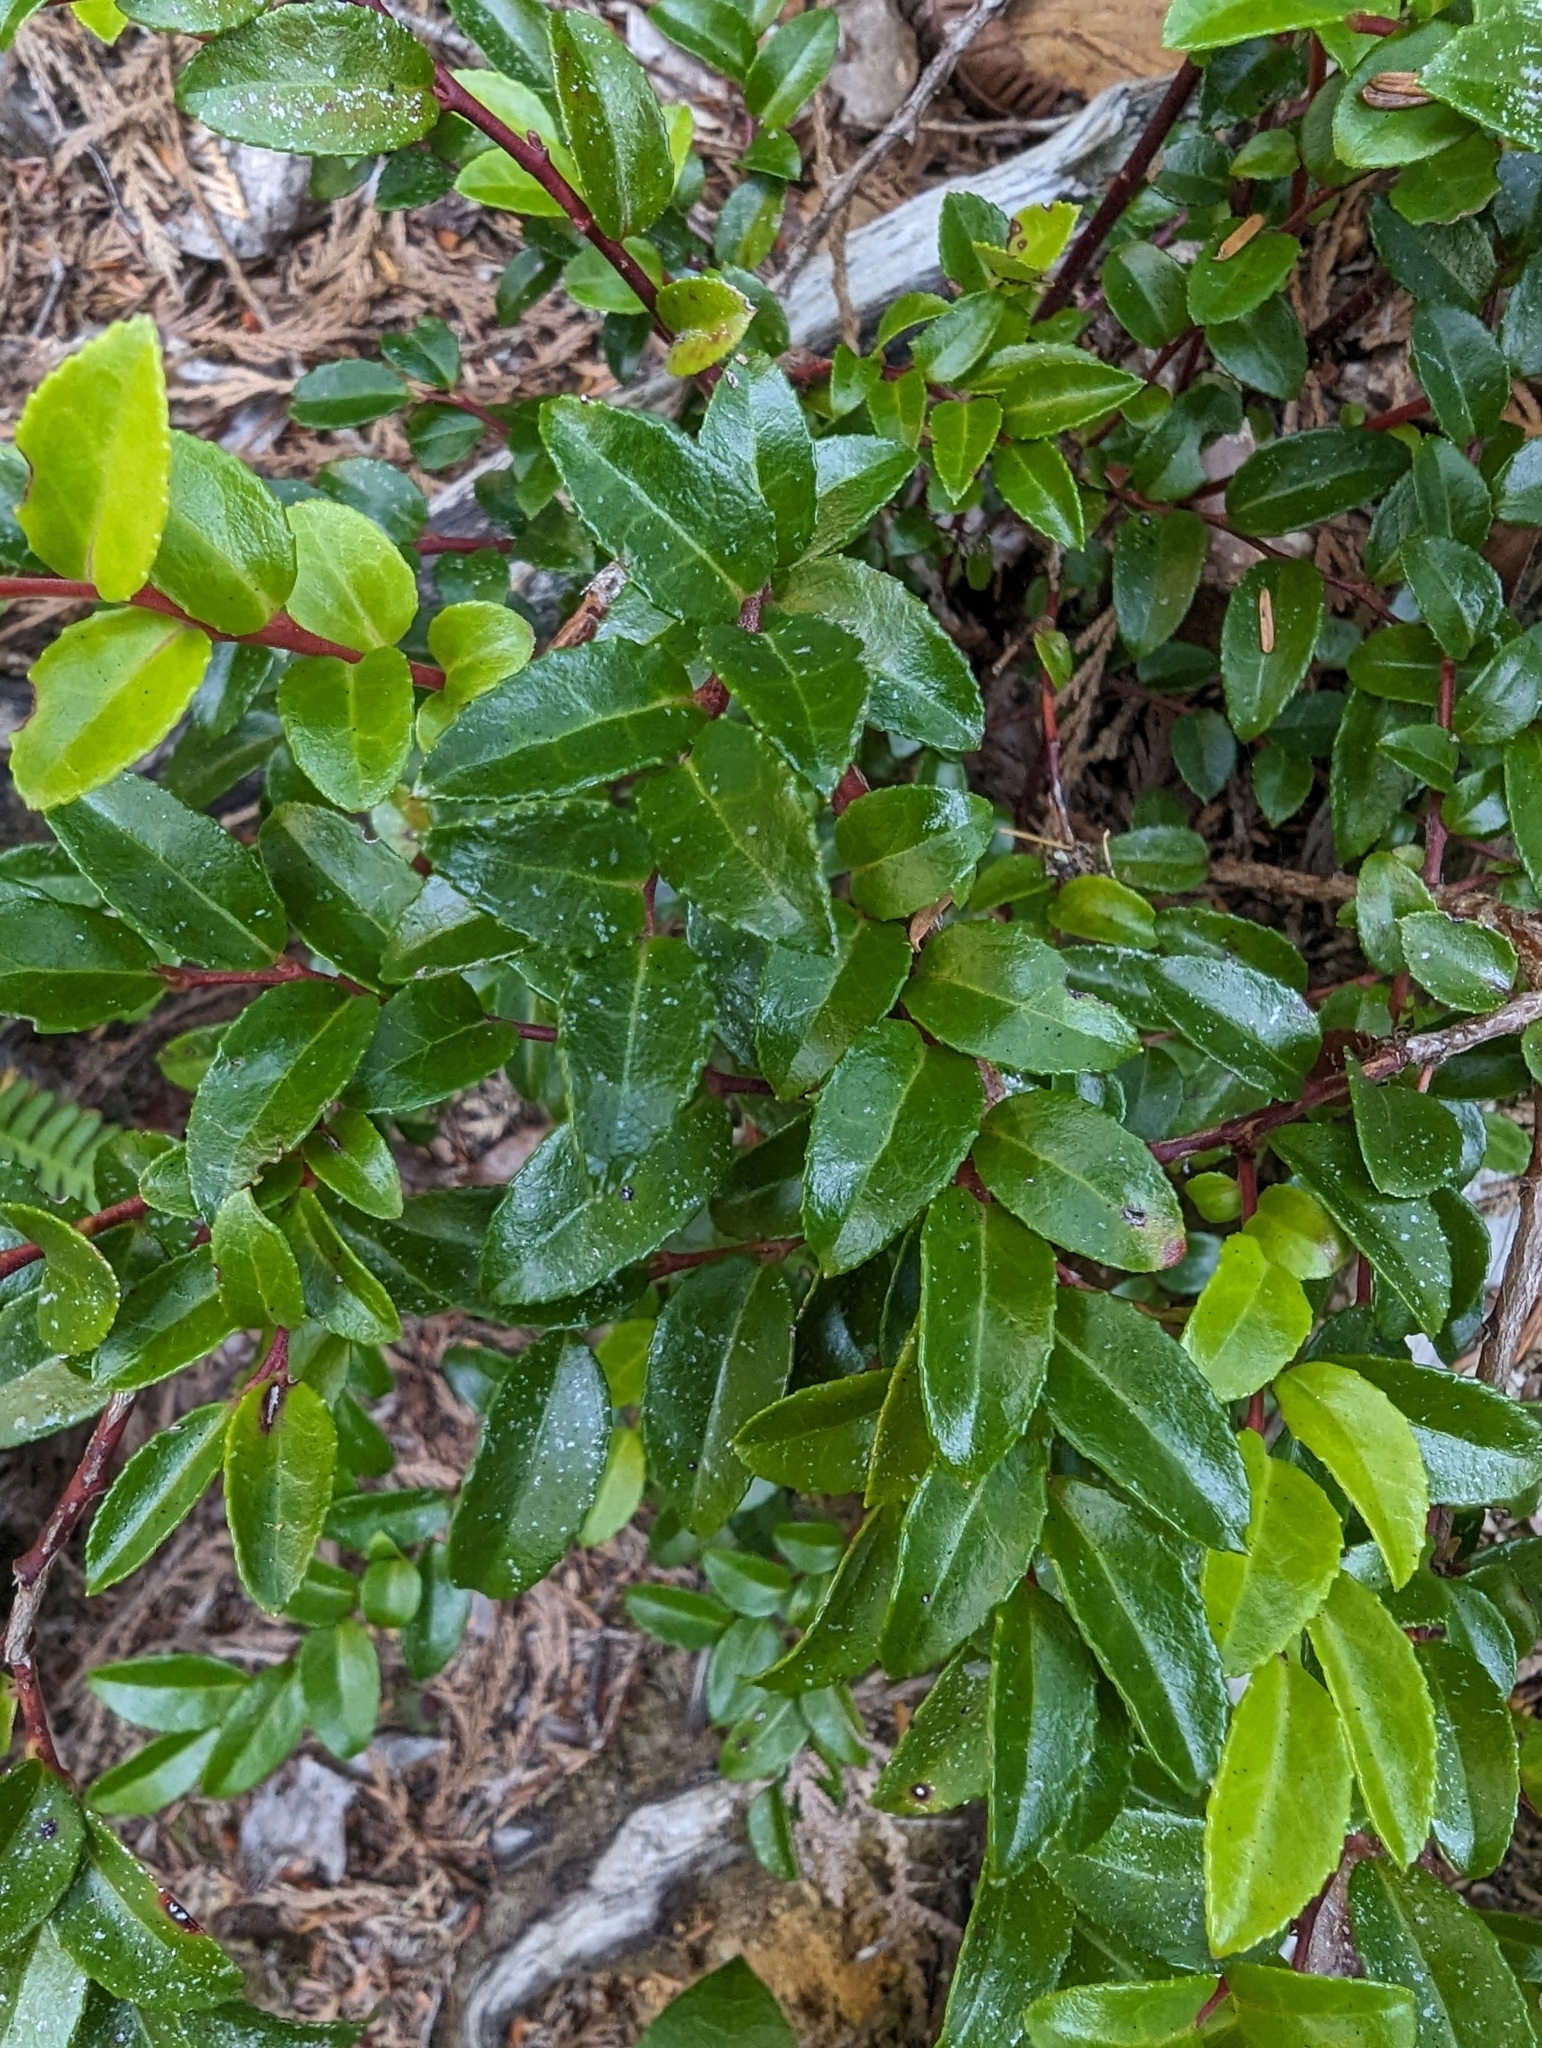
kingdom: Plantae
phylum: Tracheophyta
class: Magnoliopsida
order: Ericales
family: Ericaceae
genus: Vaccinium
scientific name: Vaccinium ovatum
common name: California-huckleberry
